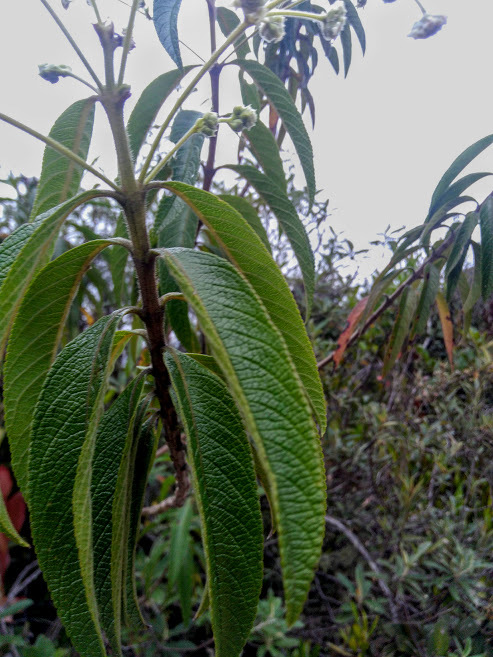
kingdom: Plantae
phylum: Tracheophyta
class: Magnoliopsida
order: Lamiales
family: Verbenaceae
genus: Lippia
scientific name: Lippia hirsuta
